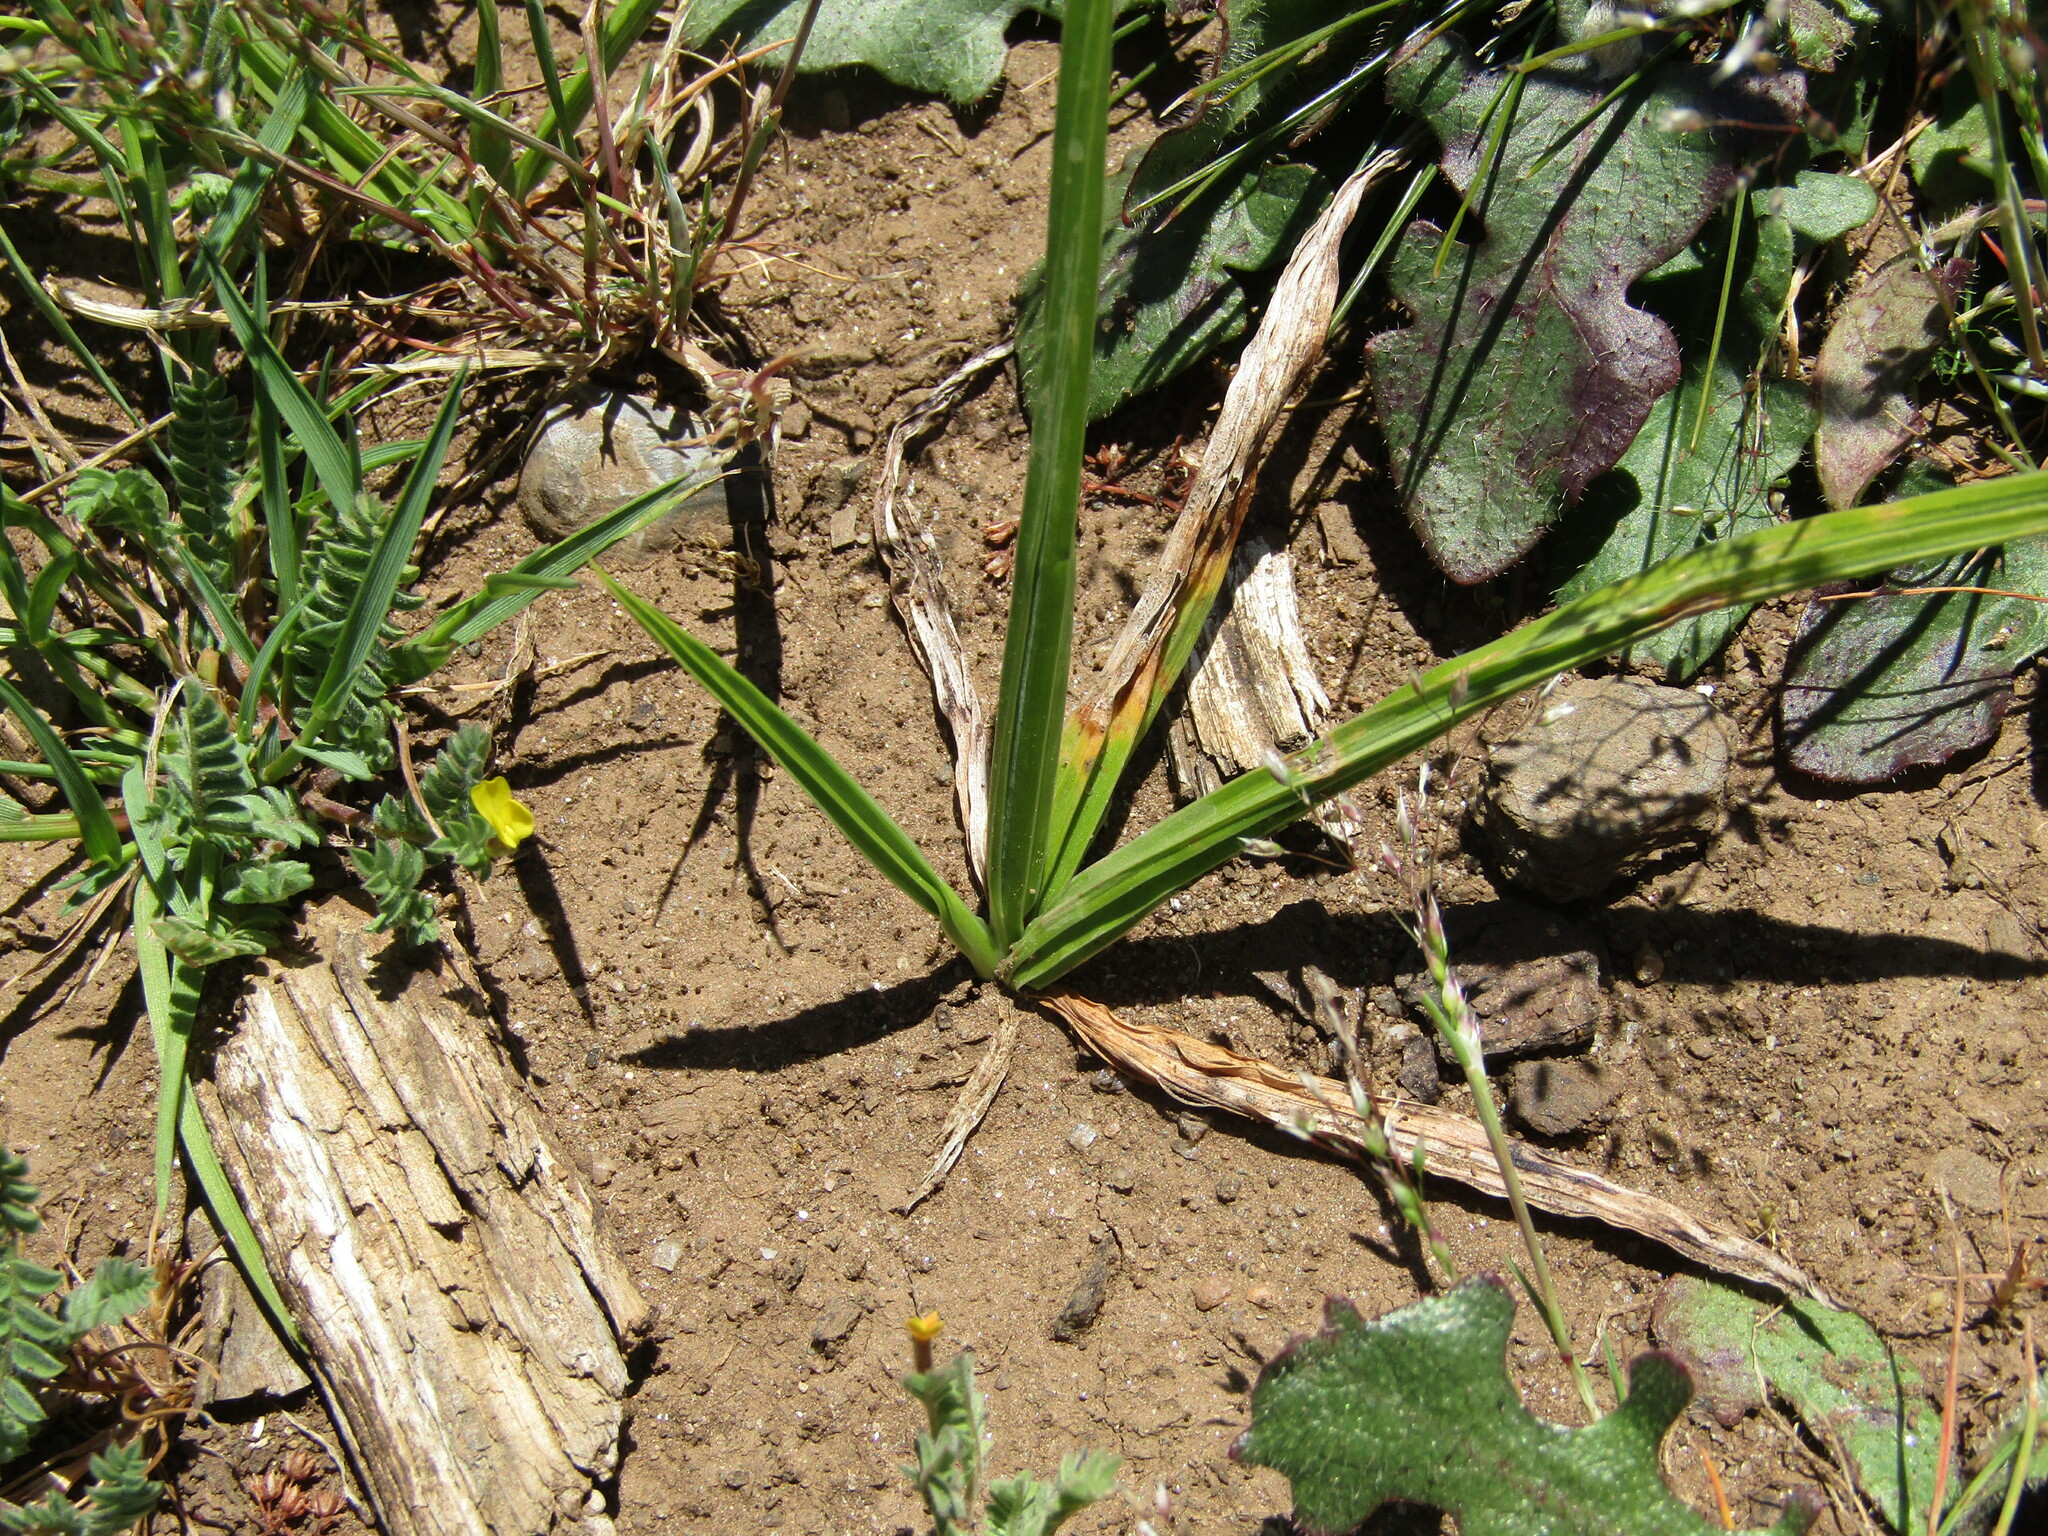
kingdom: Plantae
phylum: Tracheophyta
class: Liliopsida
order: Asparagales
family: Iridaceae
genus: Herbertia
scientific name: Herbertia lahue
